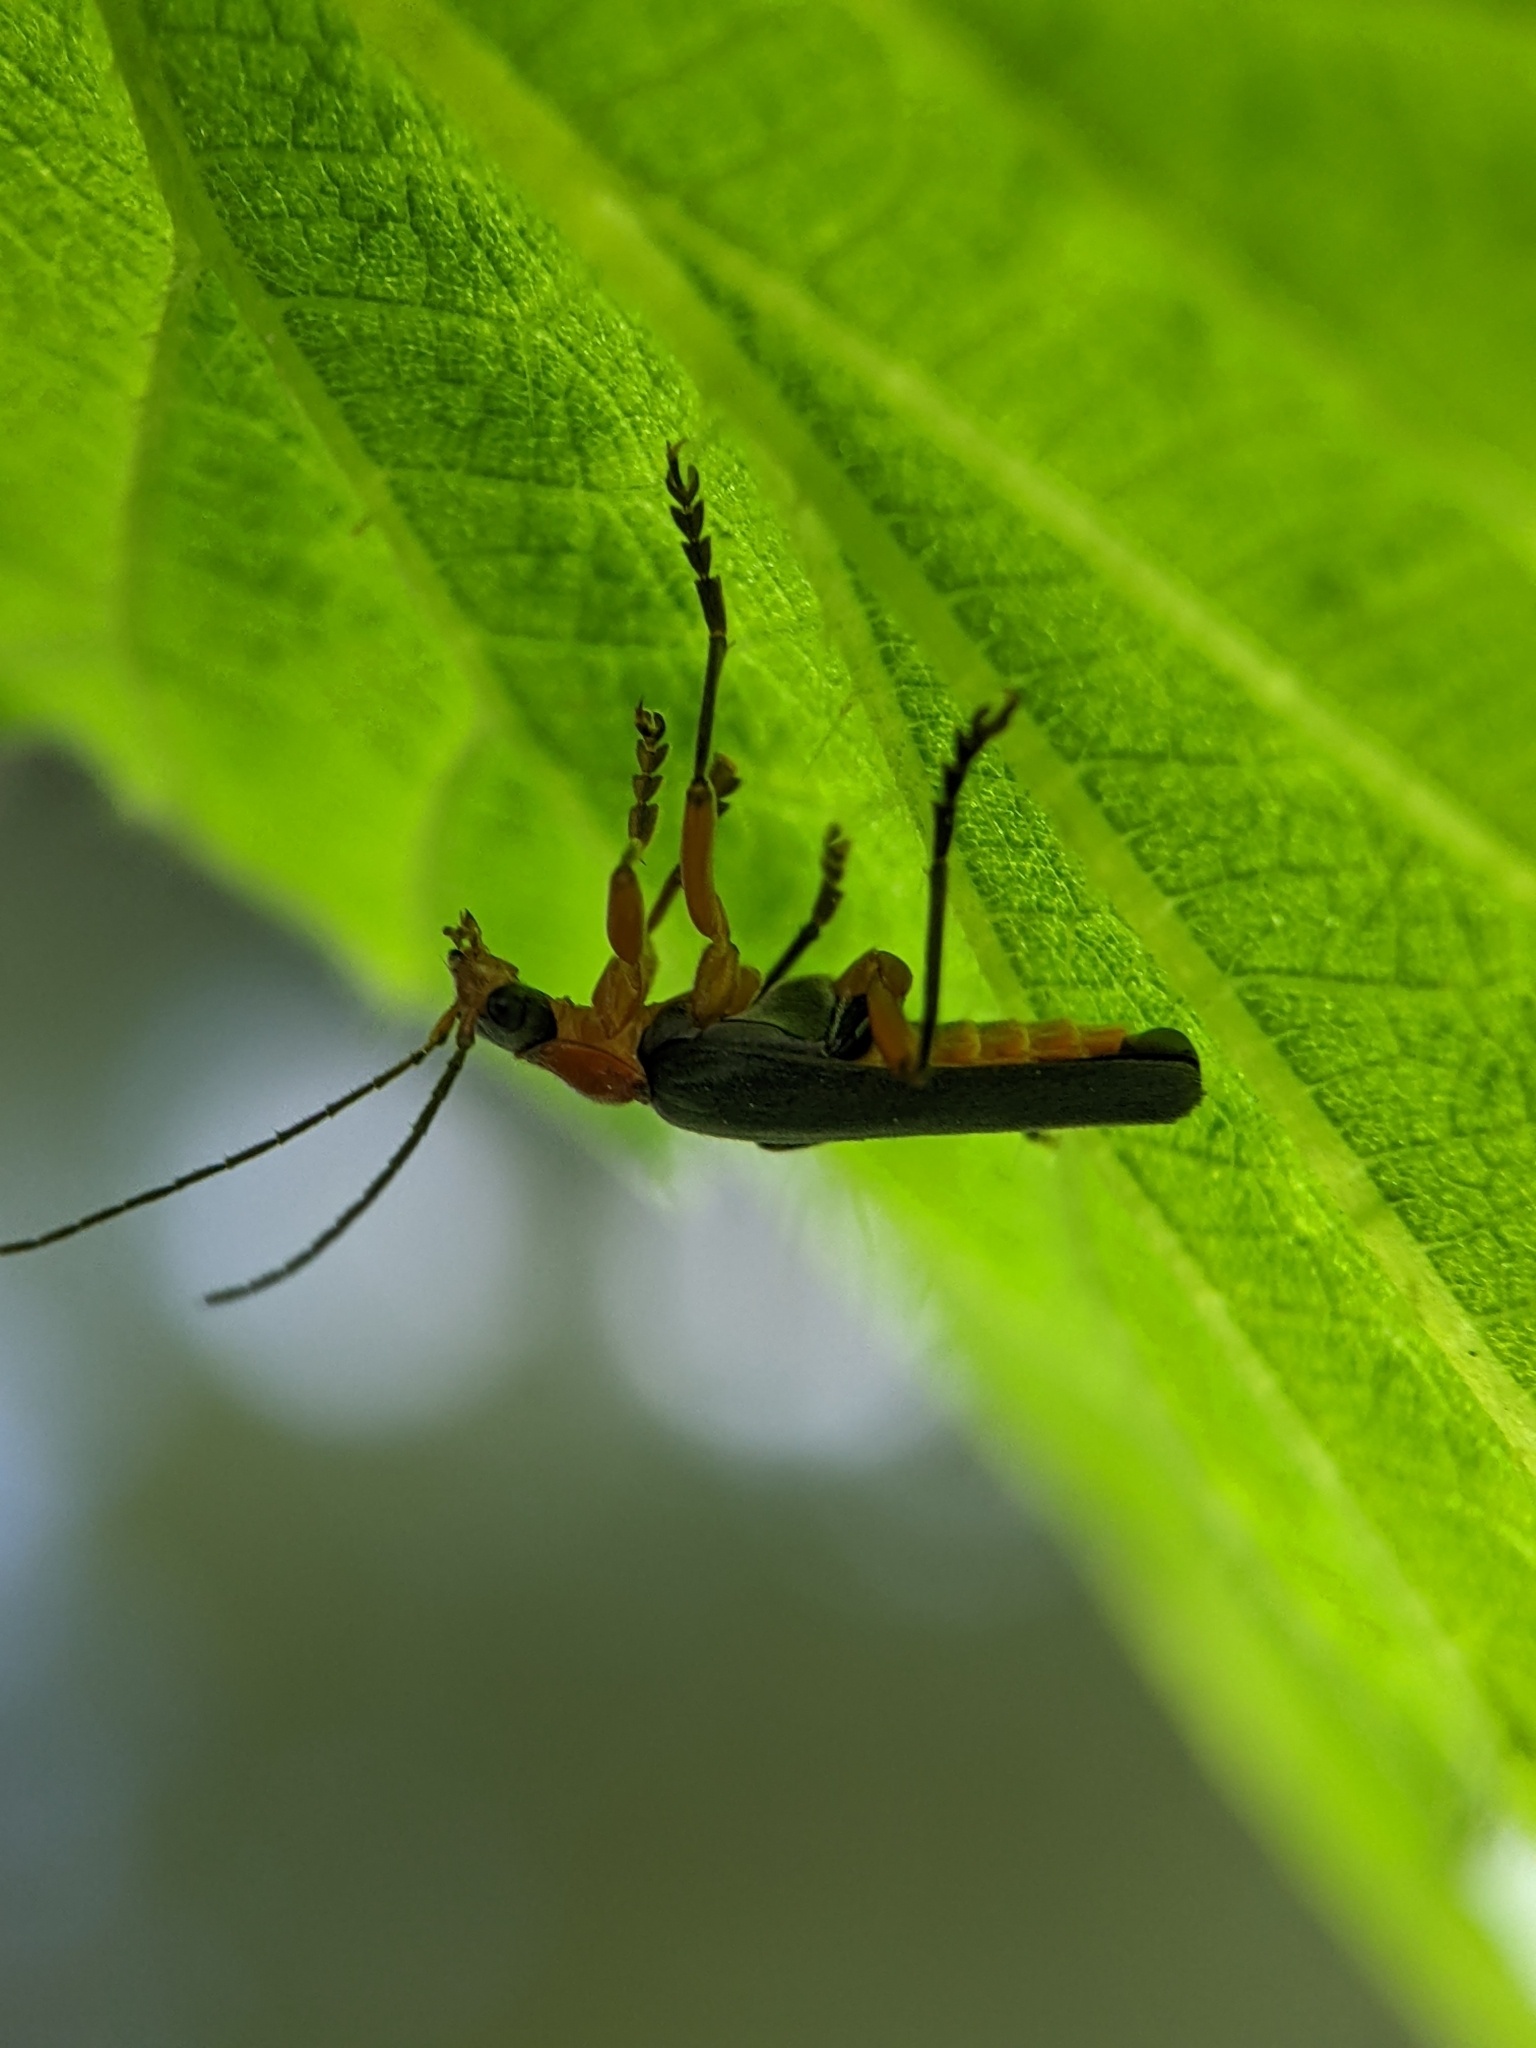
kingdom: Animalia
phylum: Arthropoda
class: Insecta
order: Coleoptera
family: Cantharidae
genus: Cantharis
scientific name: Cantharis pellucida
